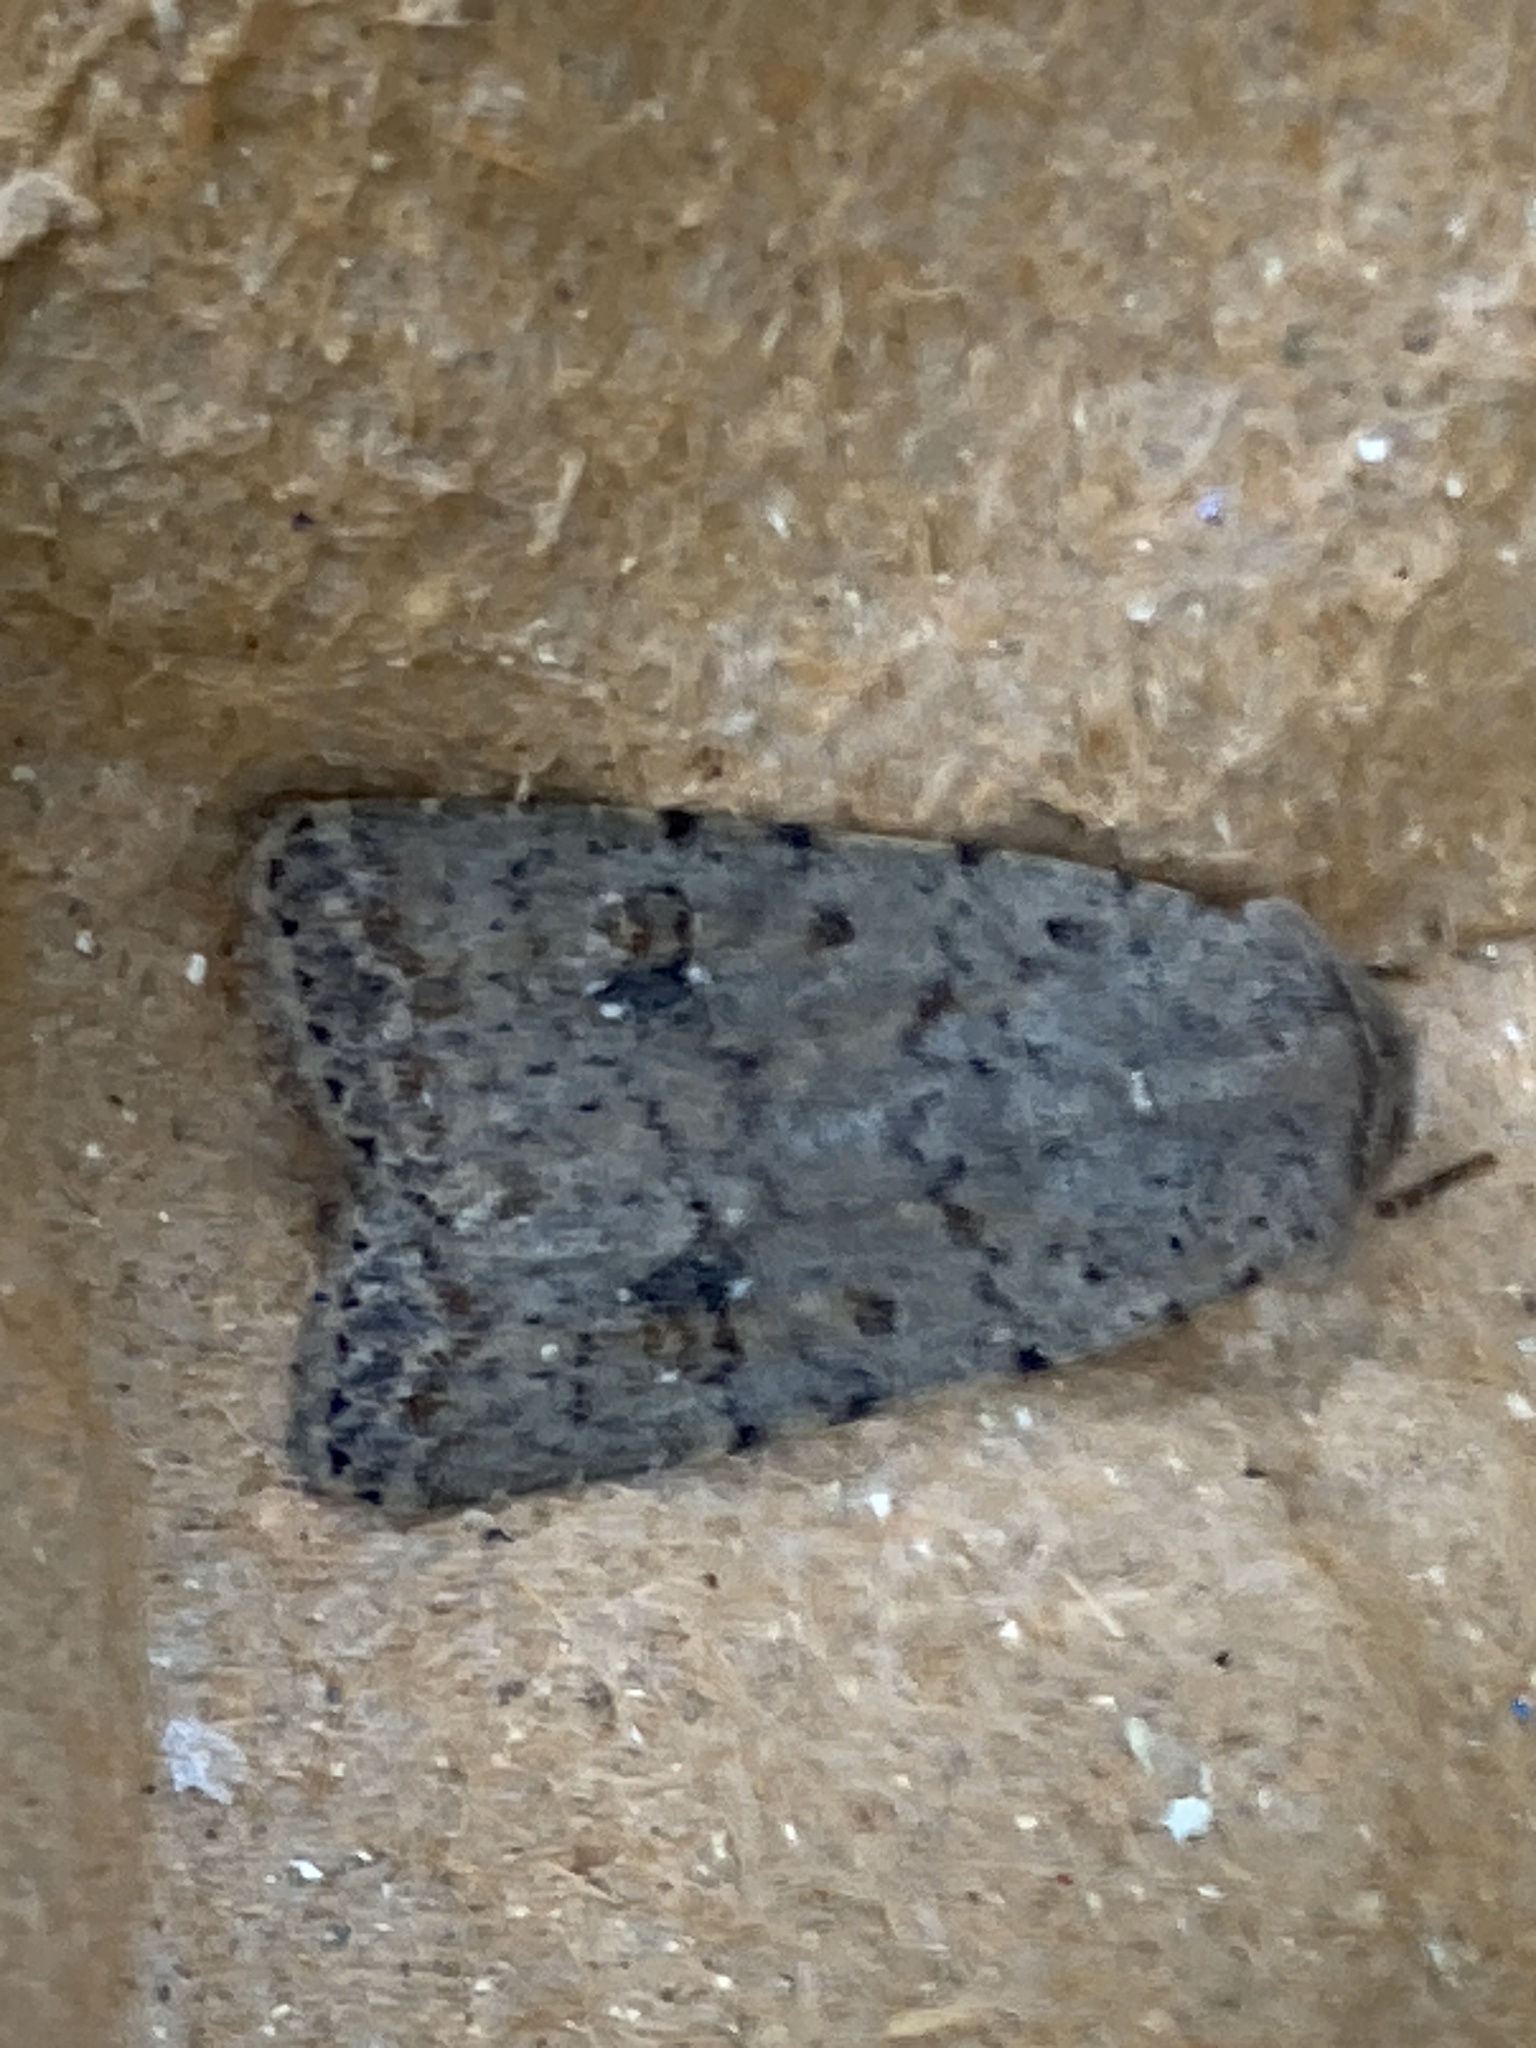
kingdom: Animalia
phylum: Arthropoda
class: Insecta
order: Lepidoptera
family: Noctuidae
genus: Caradrina
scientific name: Caradrina clavipalpis
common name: Pale mottled willow
